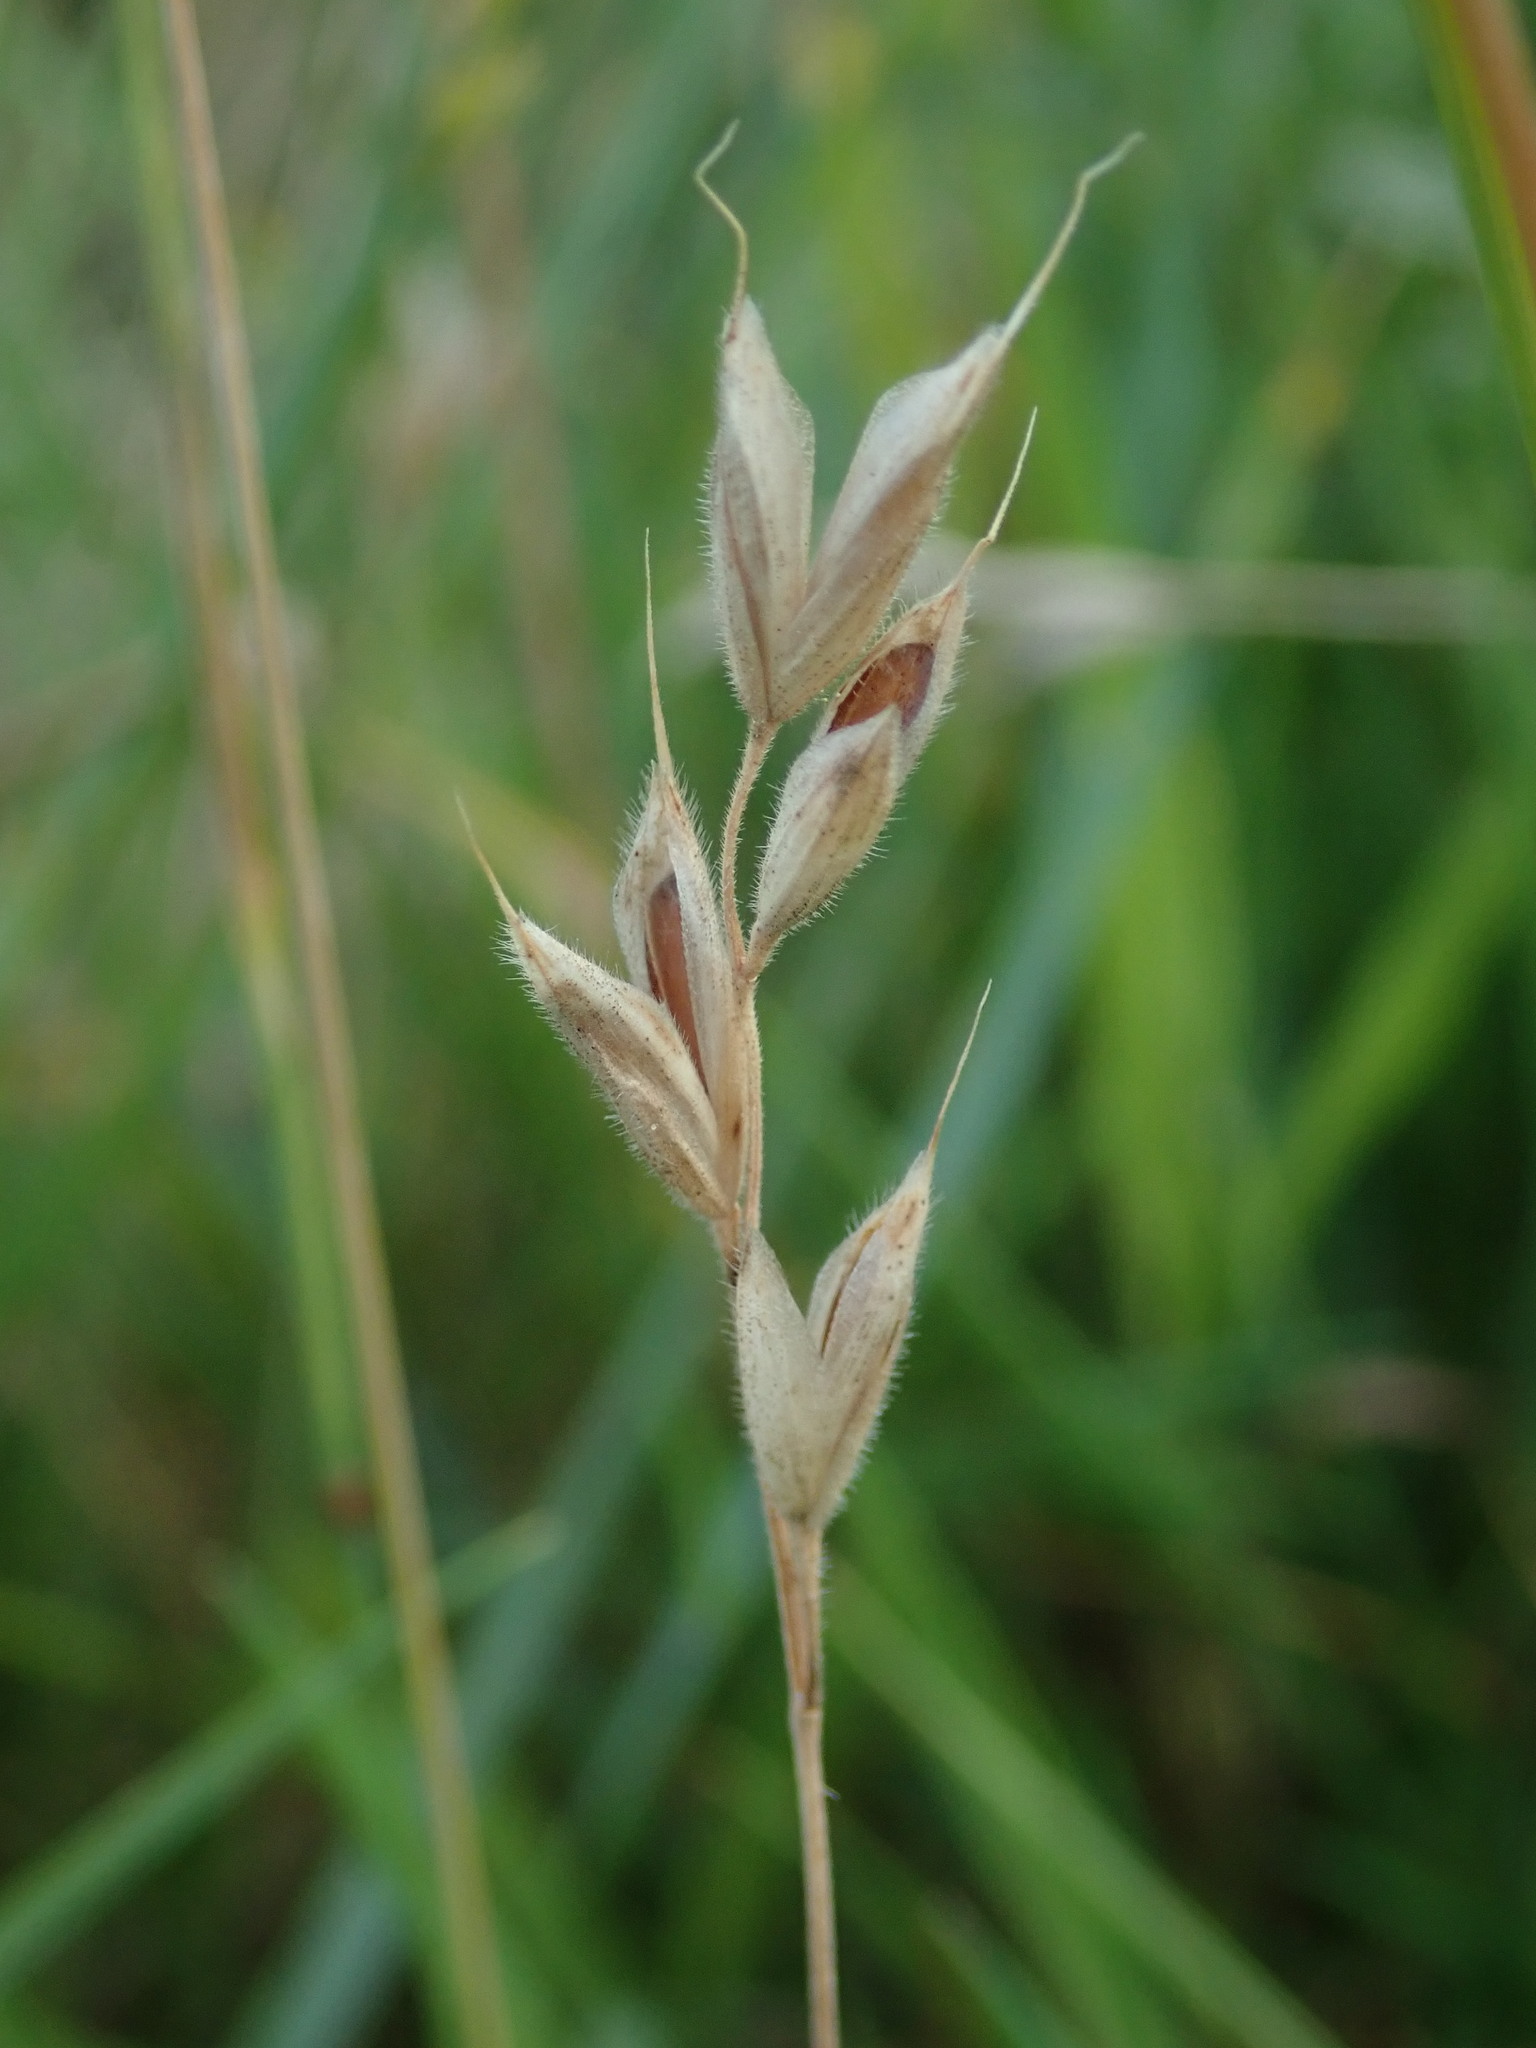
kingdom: Plantae
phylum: Tracheophyta
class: Liliopsida
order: Poales
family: Poaceae
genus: Bromus
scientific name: Bromus hordeaceus
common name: Soft brome
